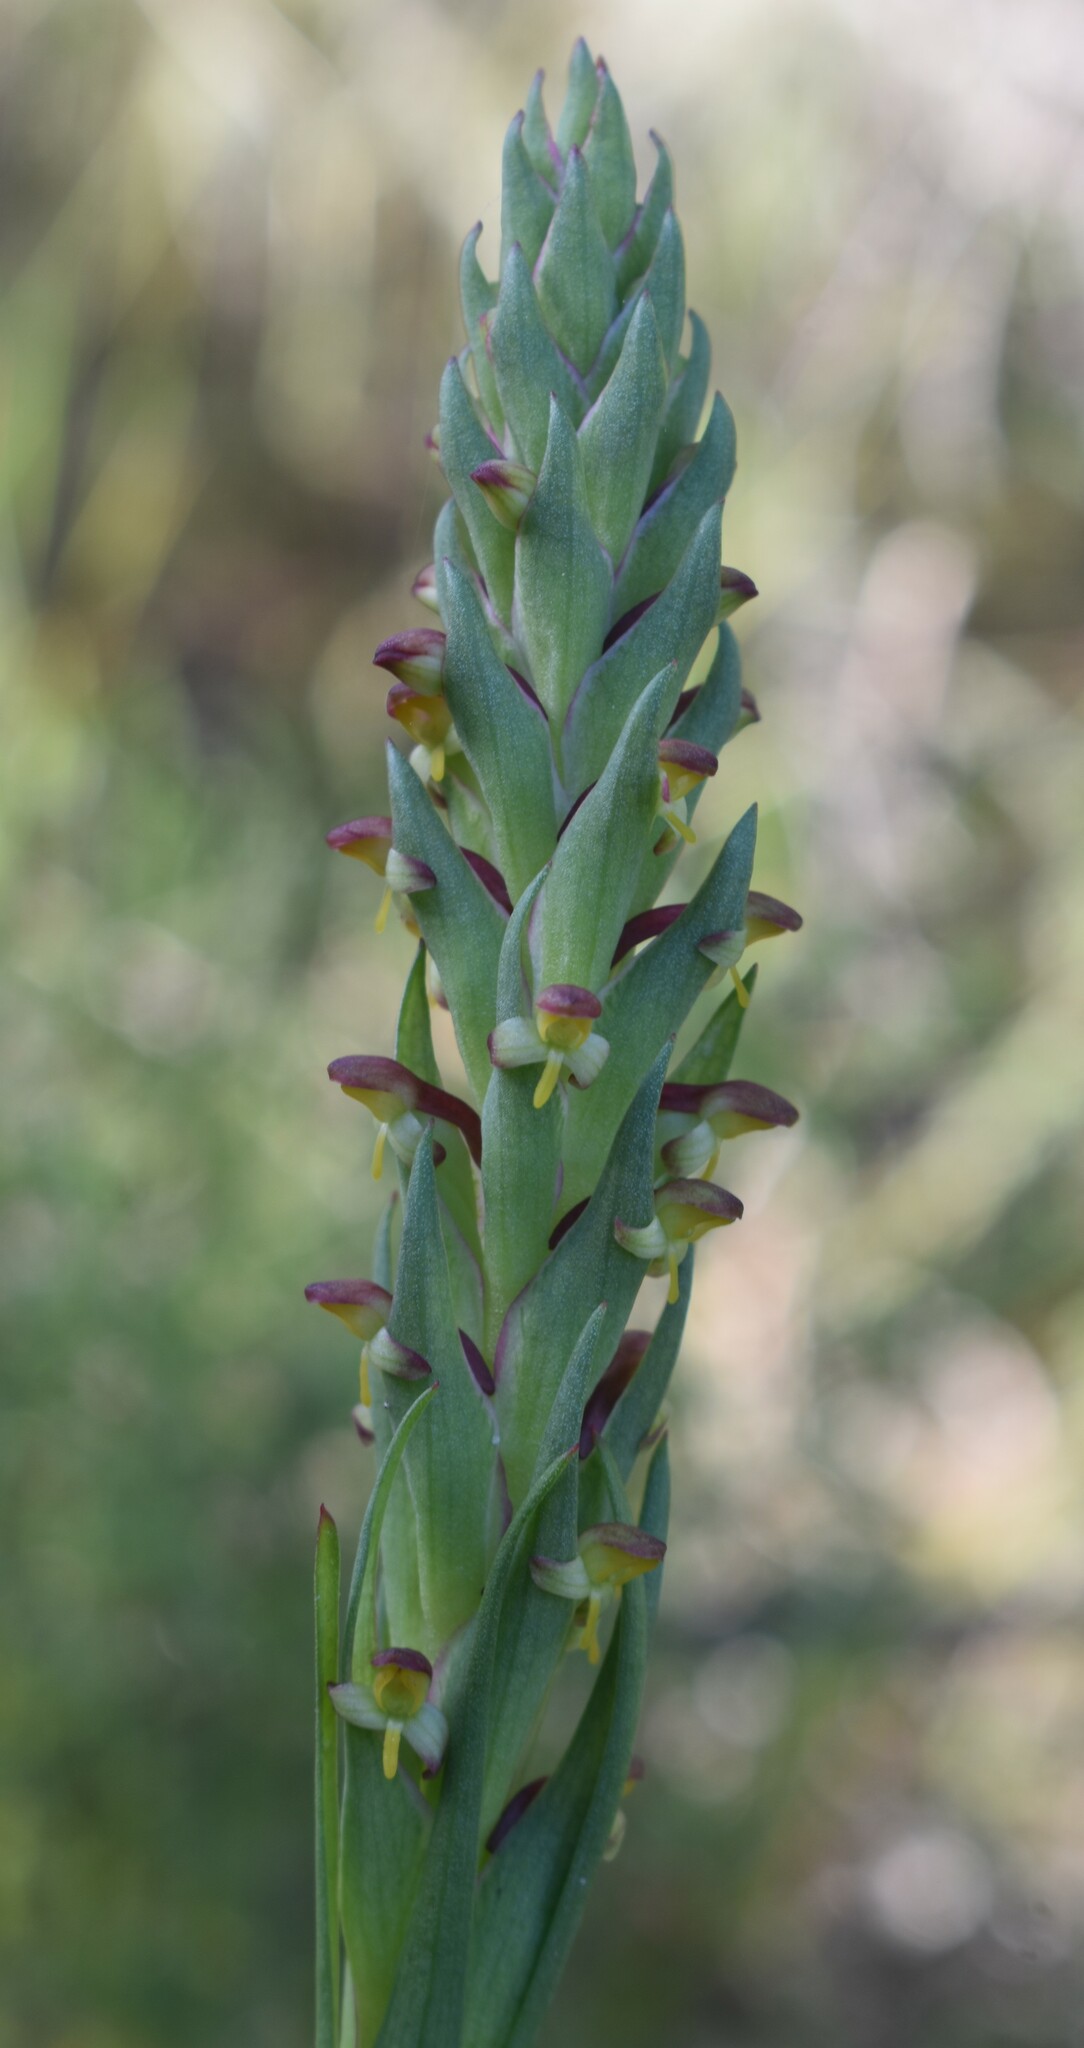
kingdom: Plantae
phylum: Tracheophyta
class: Liliopsida
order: Asparagales
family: Orchidaceae
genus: Disa
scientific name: Disa bracteata
